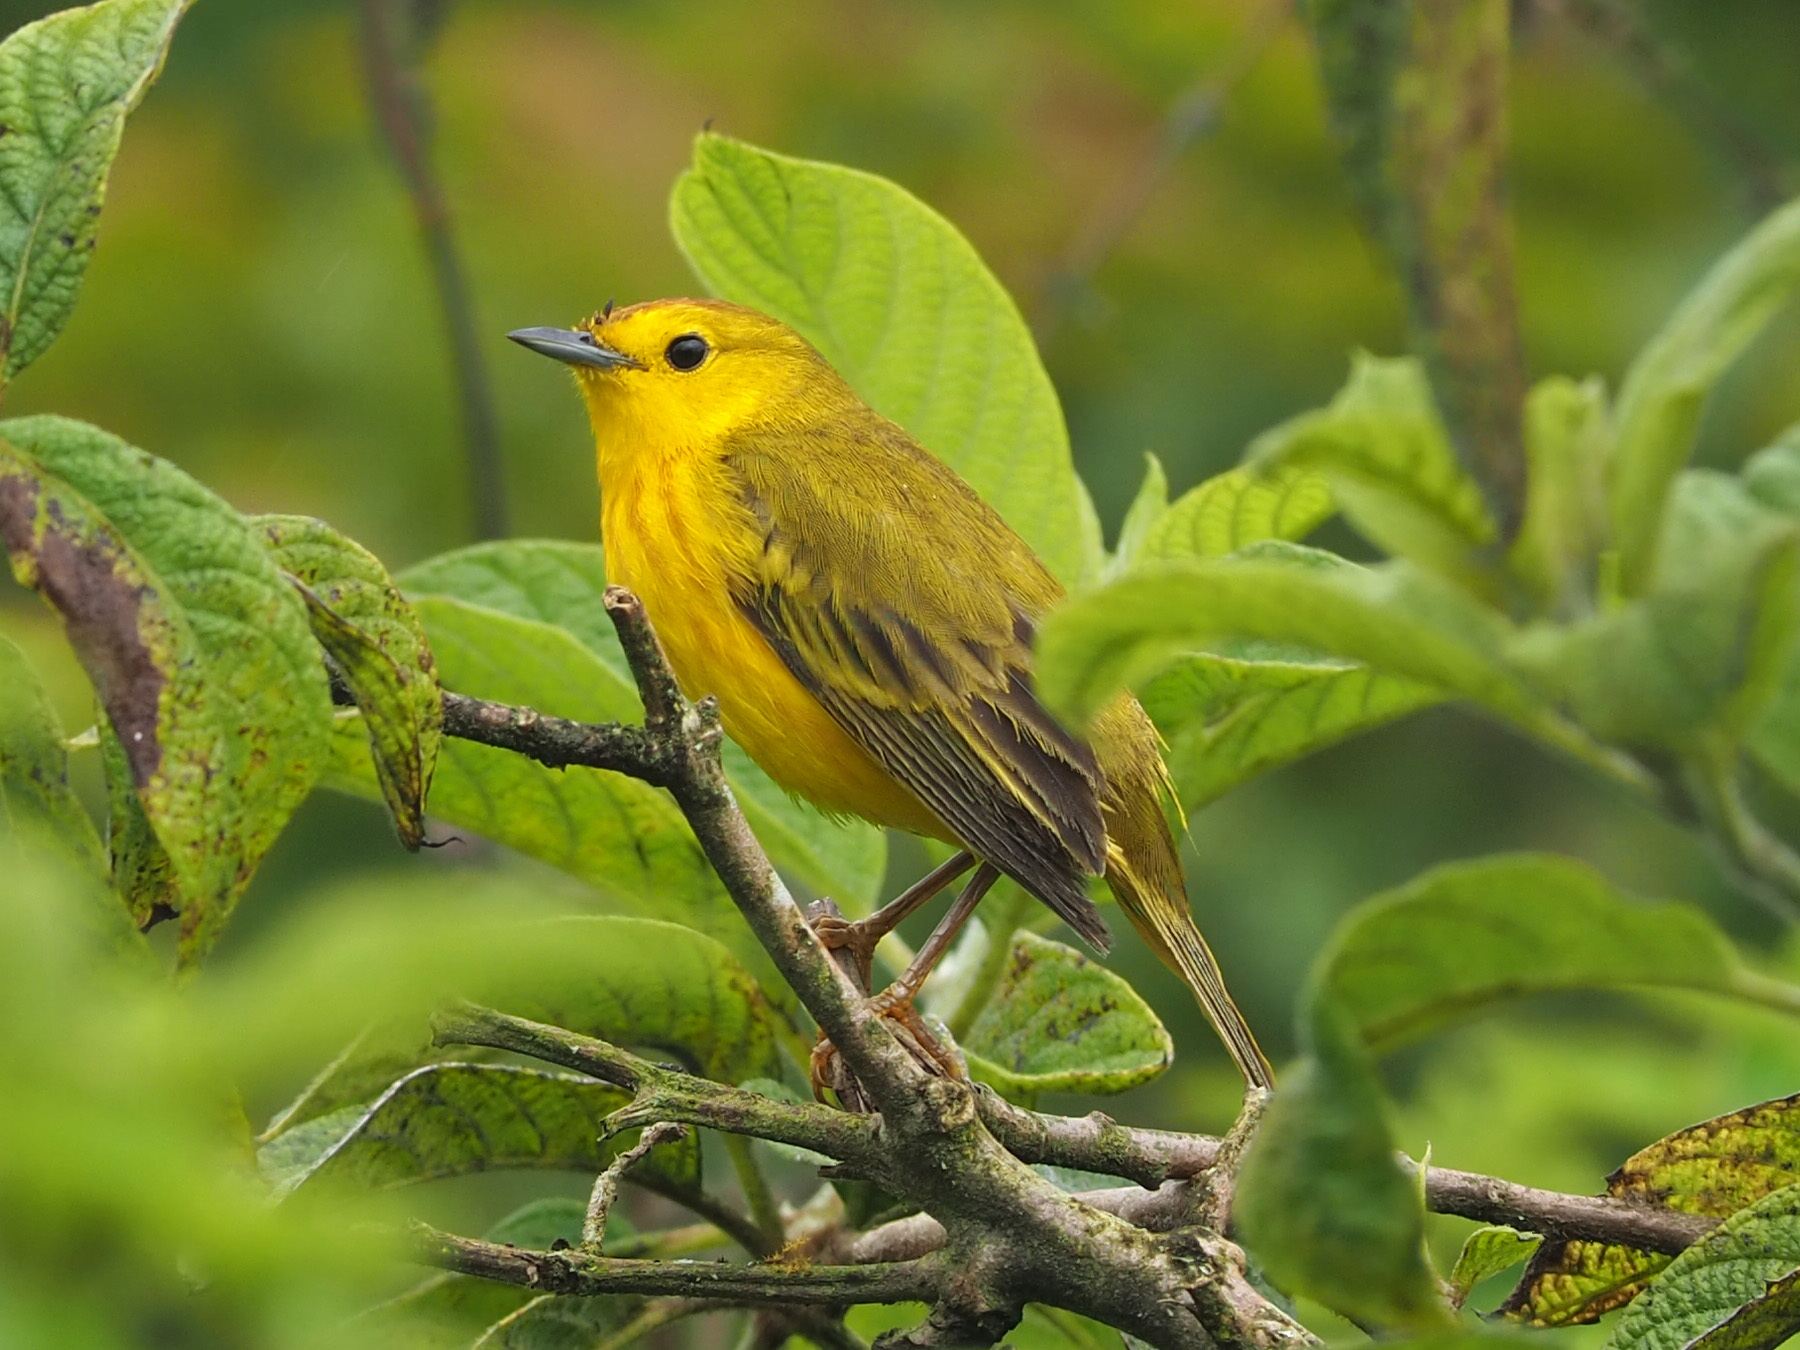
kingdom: Animalia
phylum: Chordata
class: Aves
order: Passeriformes
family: Parulidae
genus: Setophaga
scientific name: Setophaga petechia
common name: Yellow warbler
